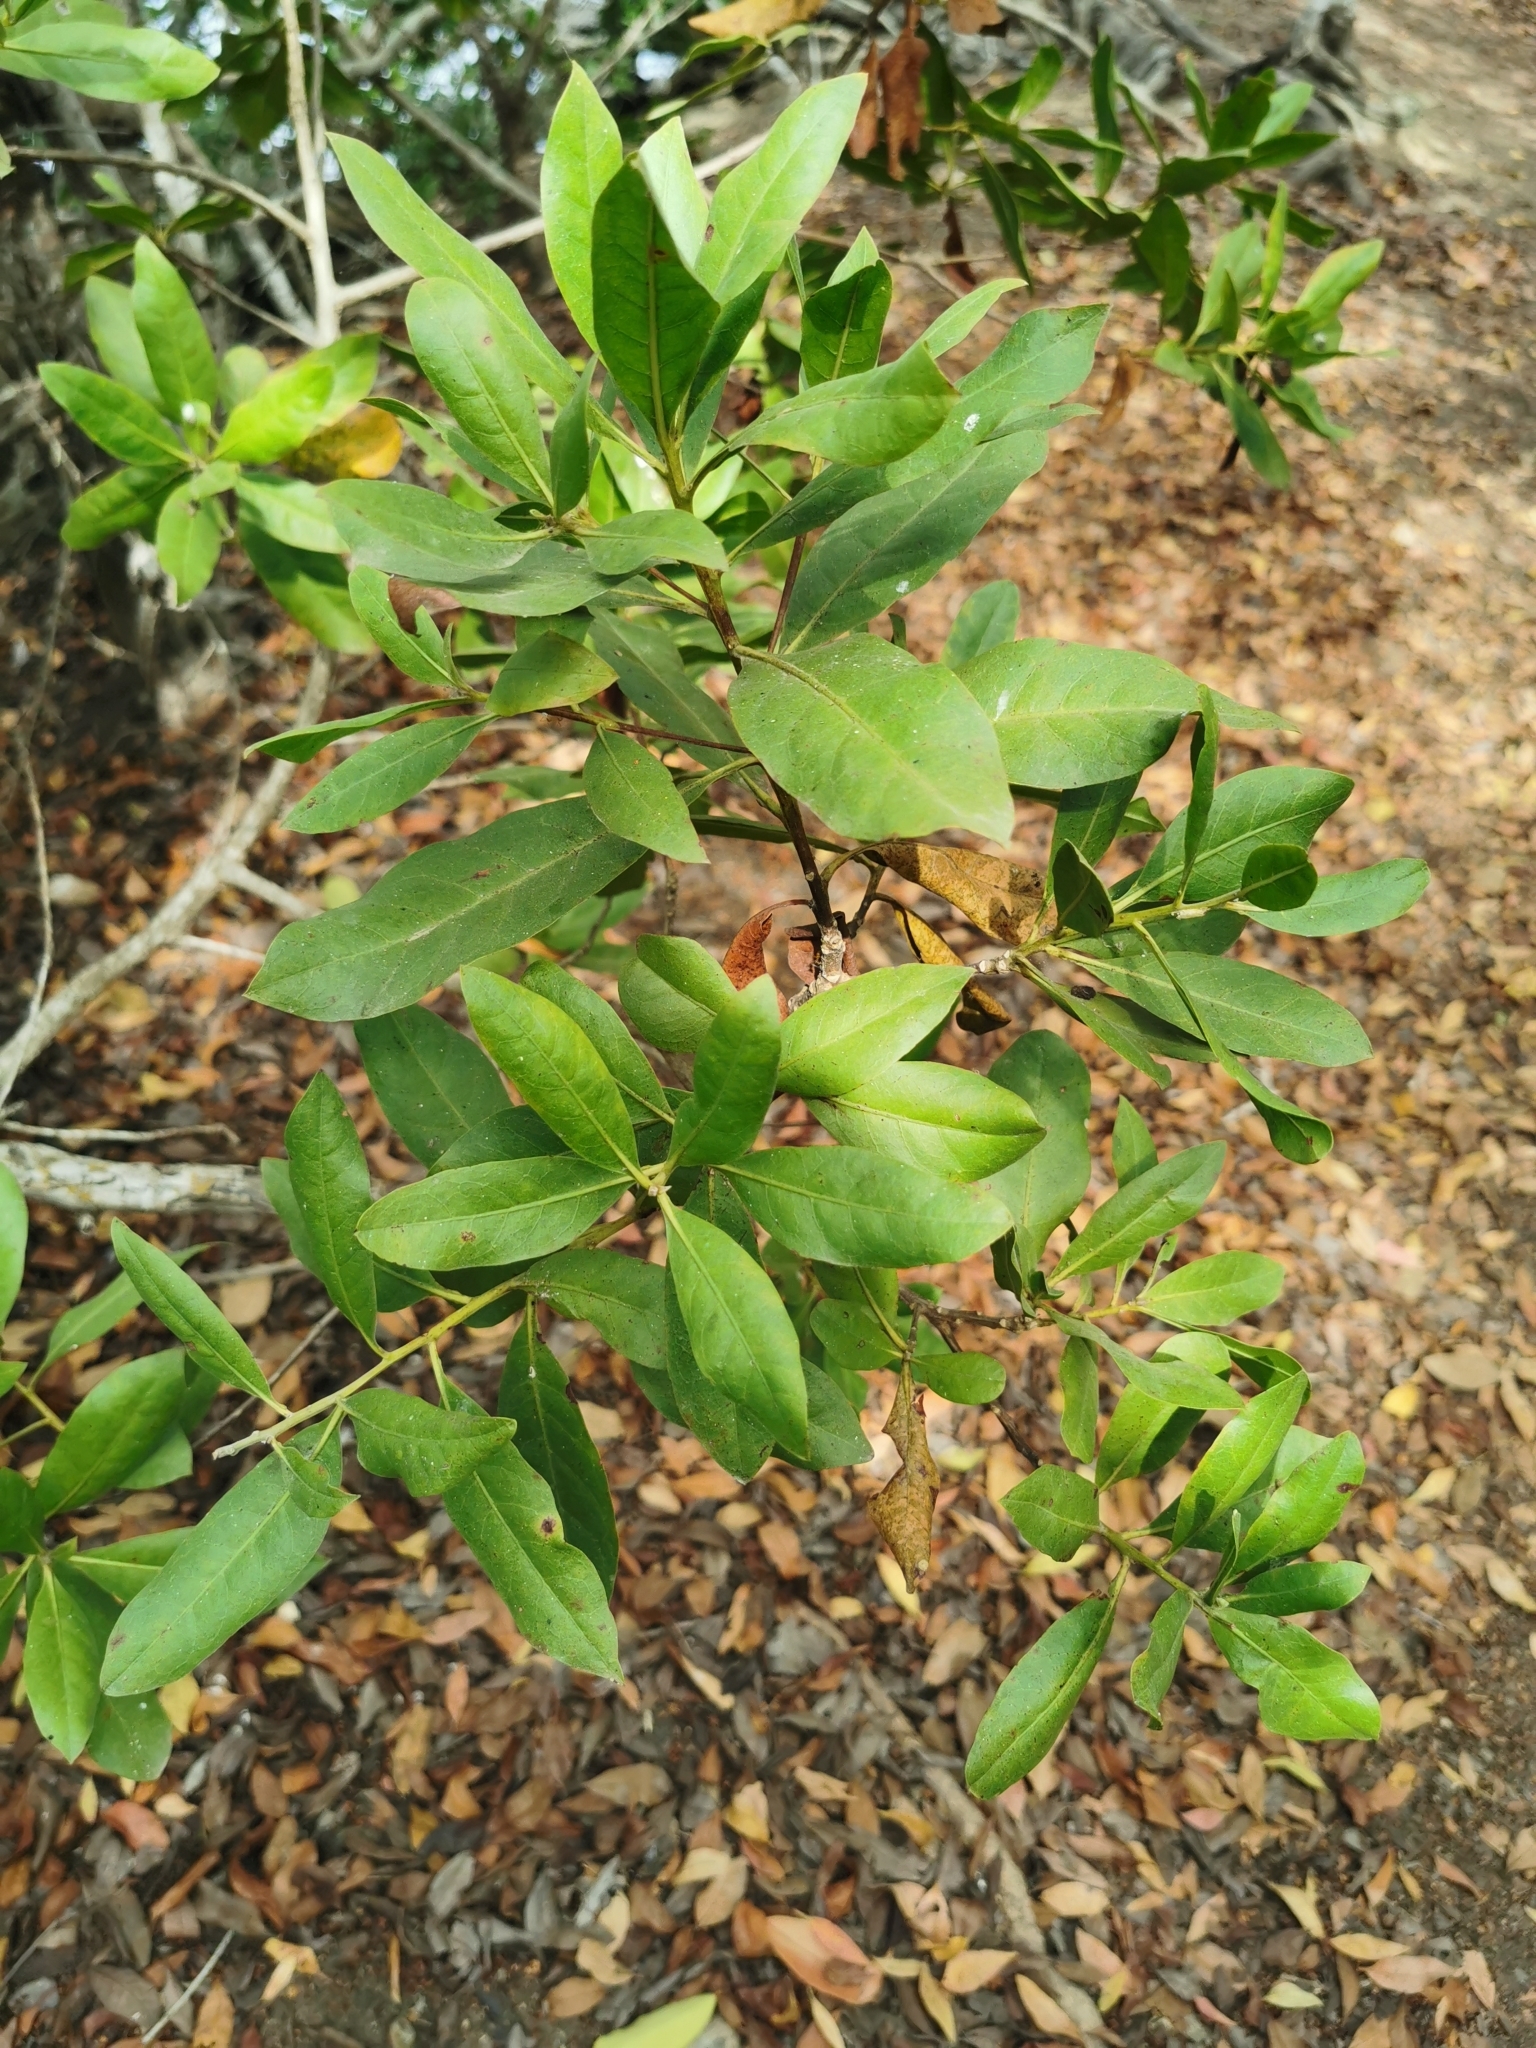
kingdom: Plantae
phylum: Tracheophyta
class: Magnoliopsida
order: Myrtales
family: Combretaceae
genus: Conocarpus
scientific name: Conocarpus erectus
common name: Button mangrove
